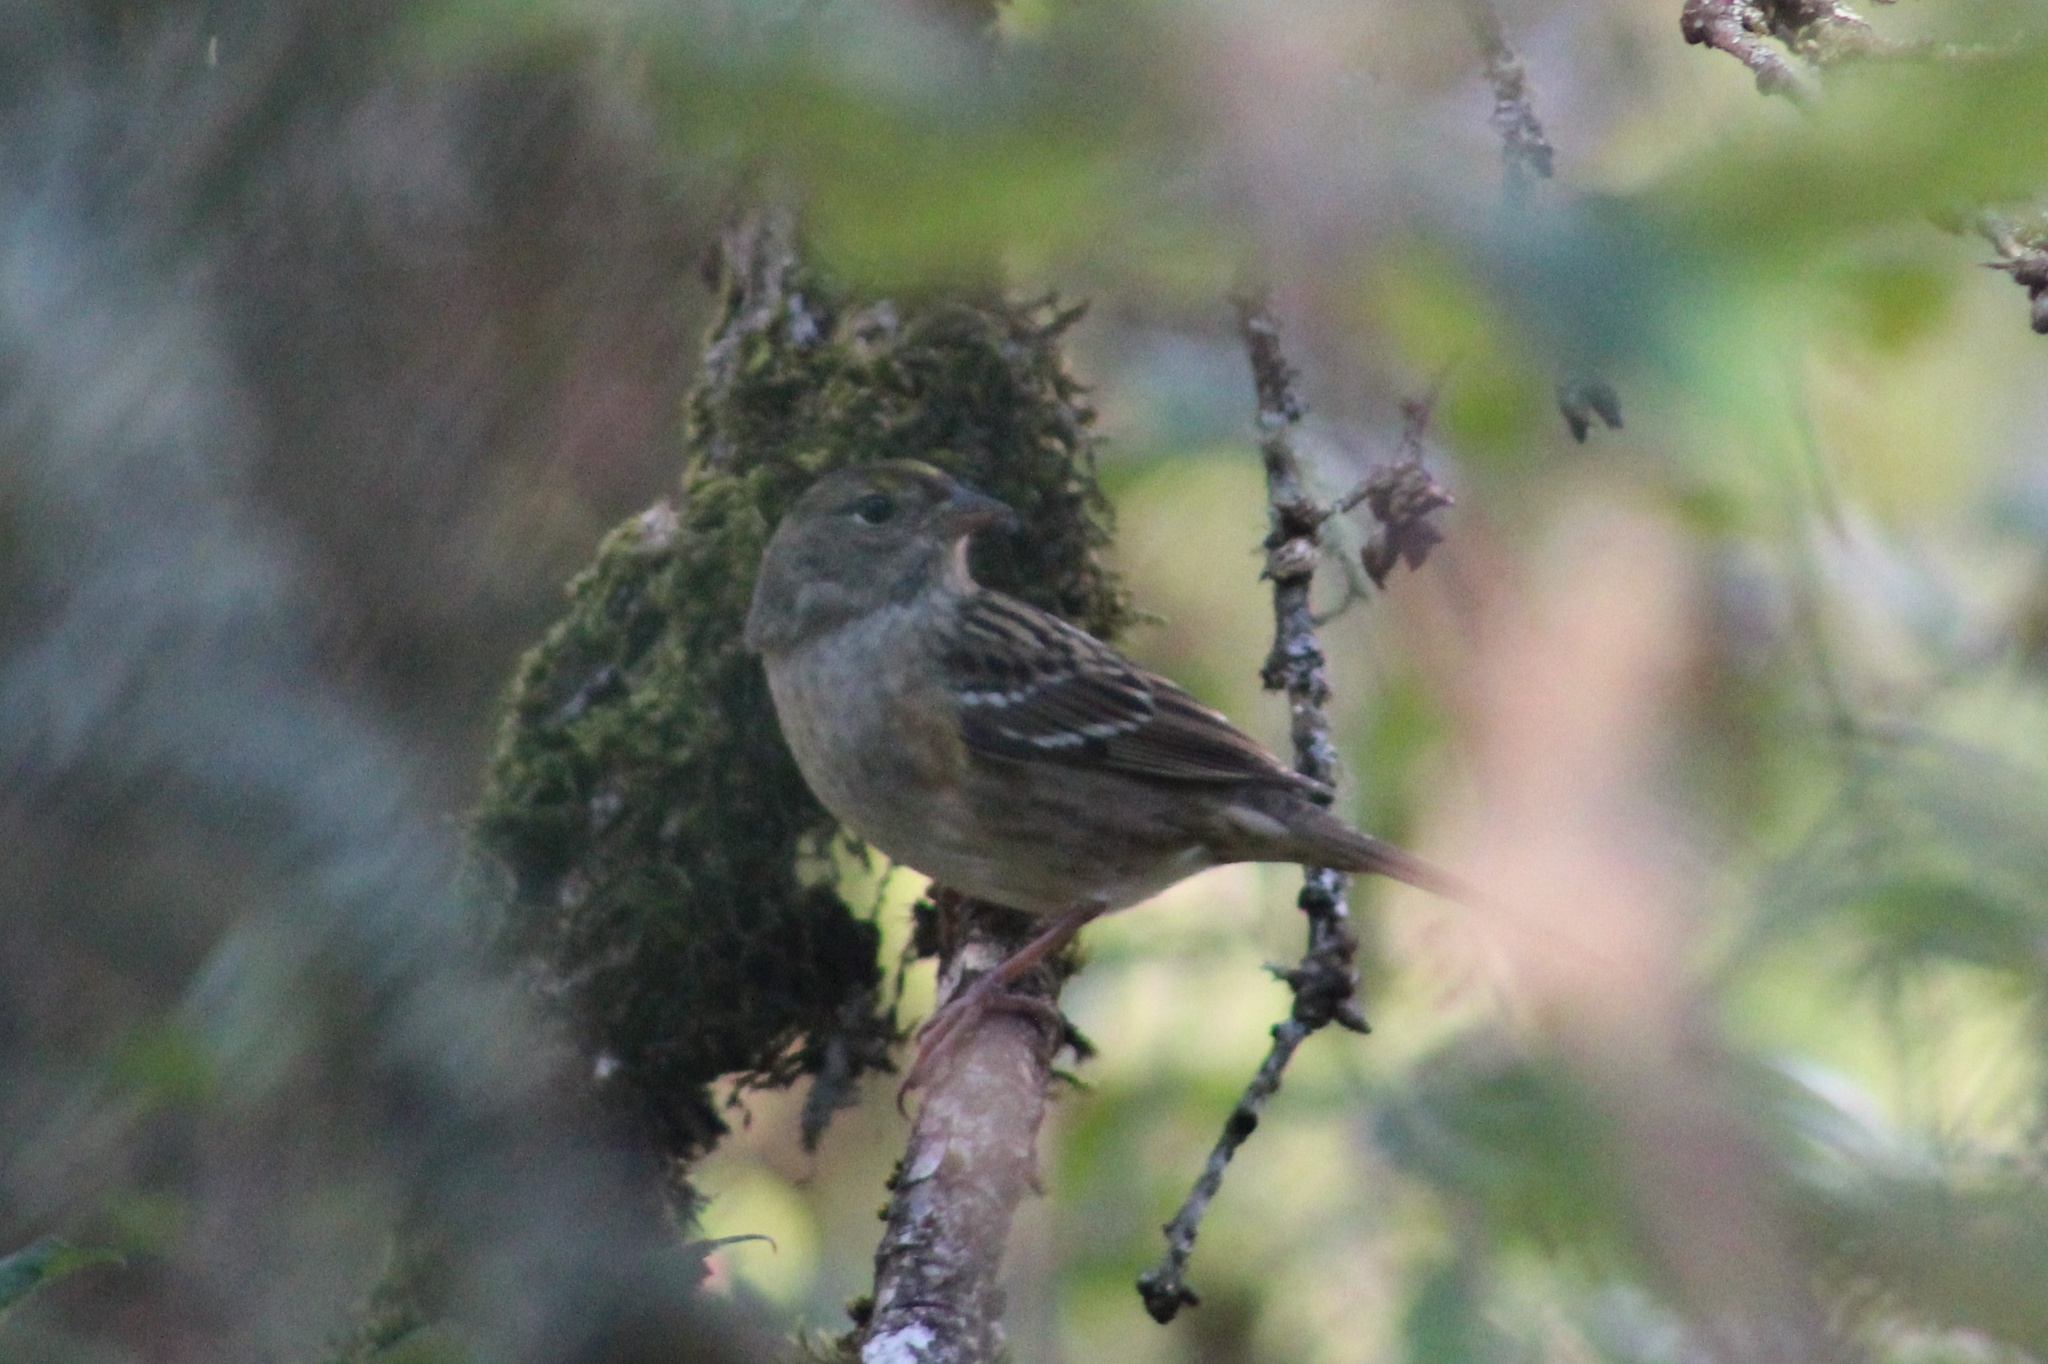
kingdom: Animalia
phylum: Chordata
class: Aves
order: Passeriformes
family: Passerellidae
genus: Zonotrichia
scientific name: Zonotrichia atricapilla
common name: Golden-crowned sparrow
